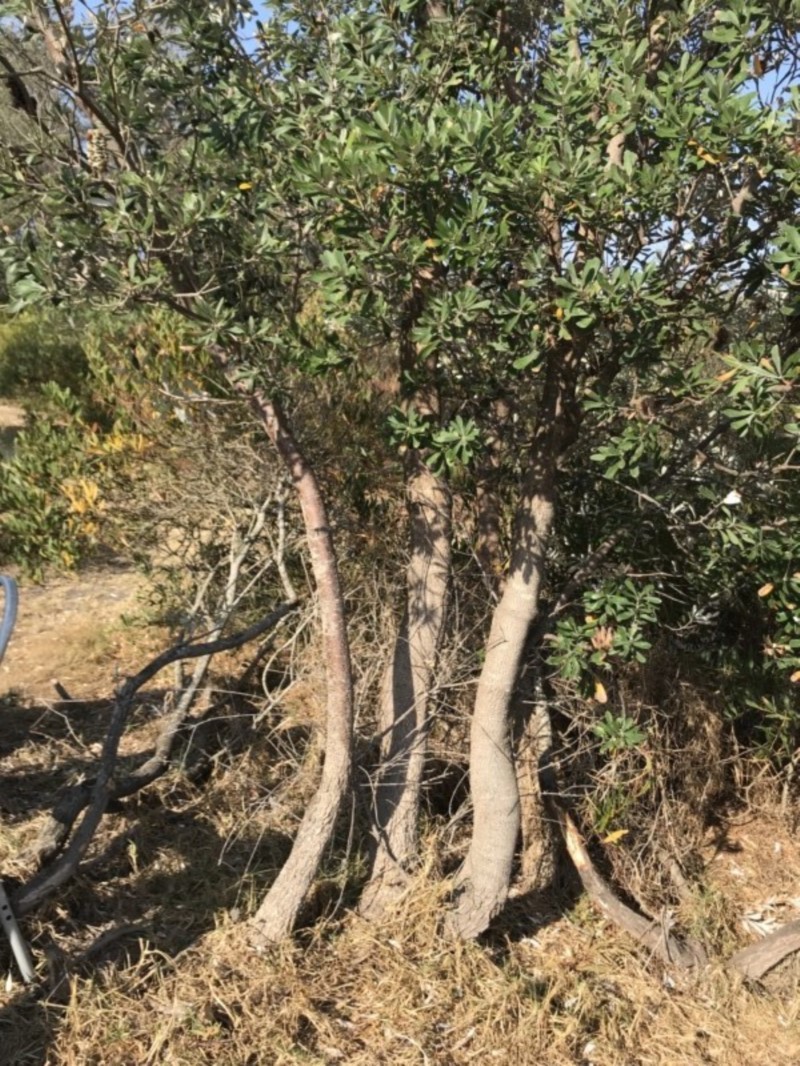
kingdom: Plantae
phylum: Tracheophyta
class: Magnoliopsida
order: Proteales
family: Proteaceae
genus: Banksia
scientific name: Banksia integrifolia
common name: White-honeysuckle
